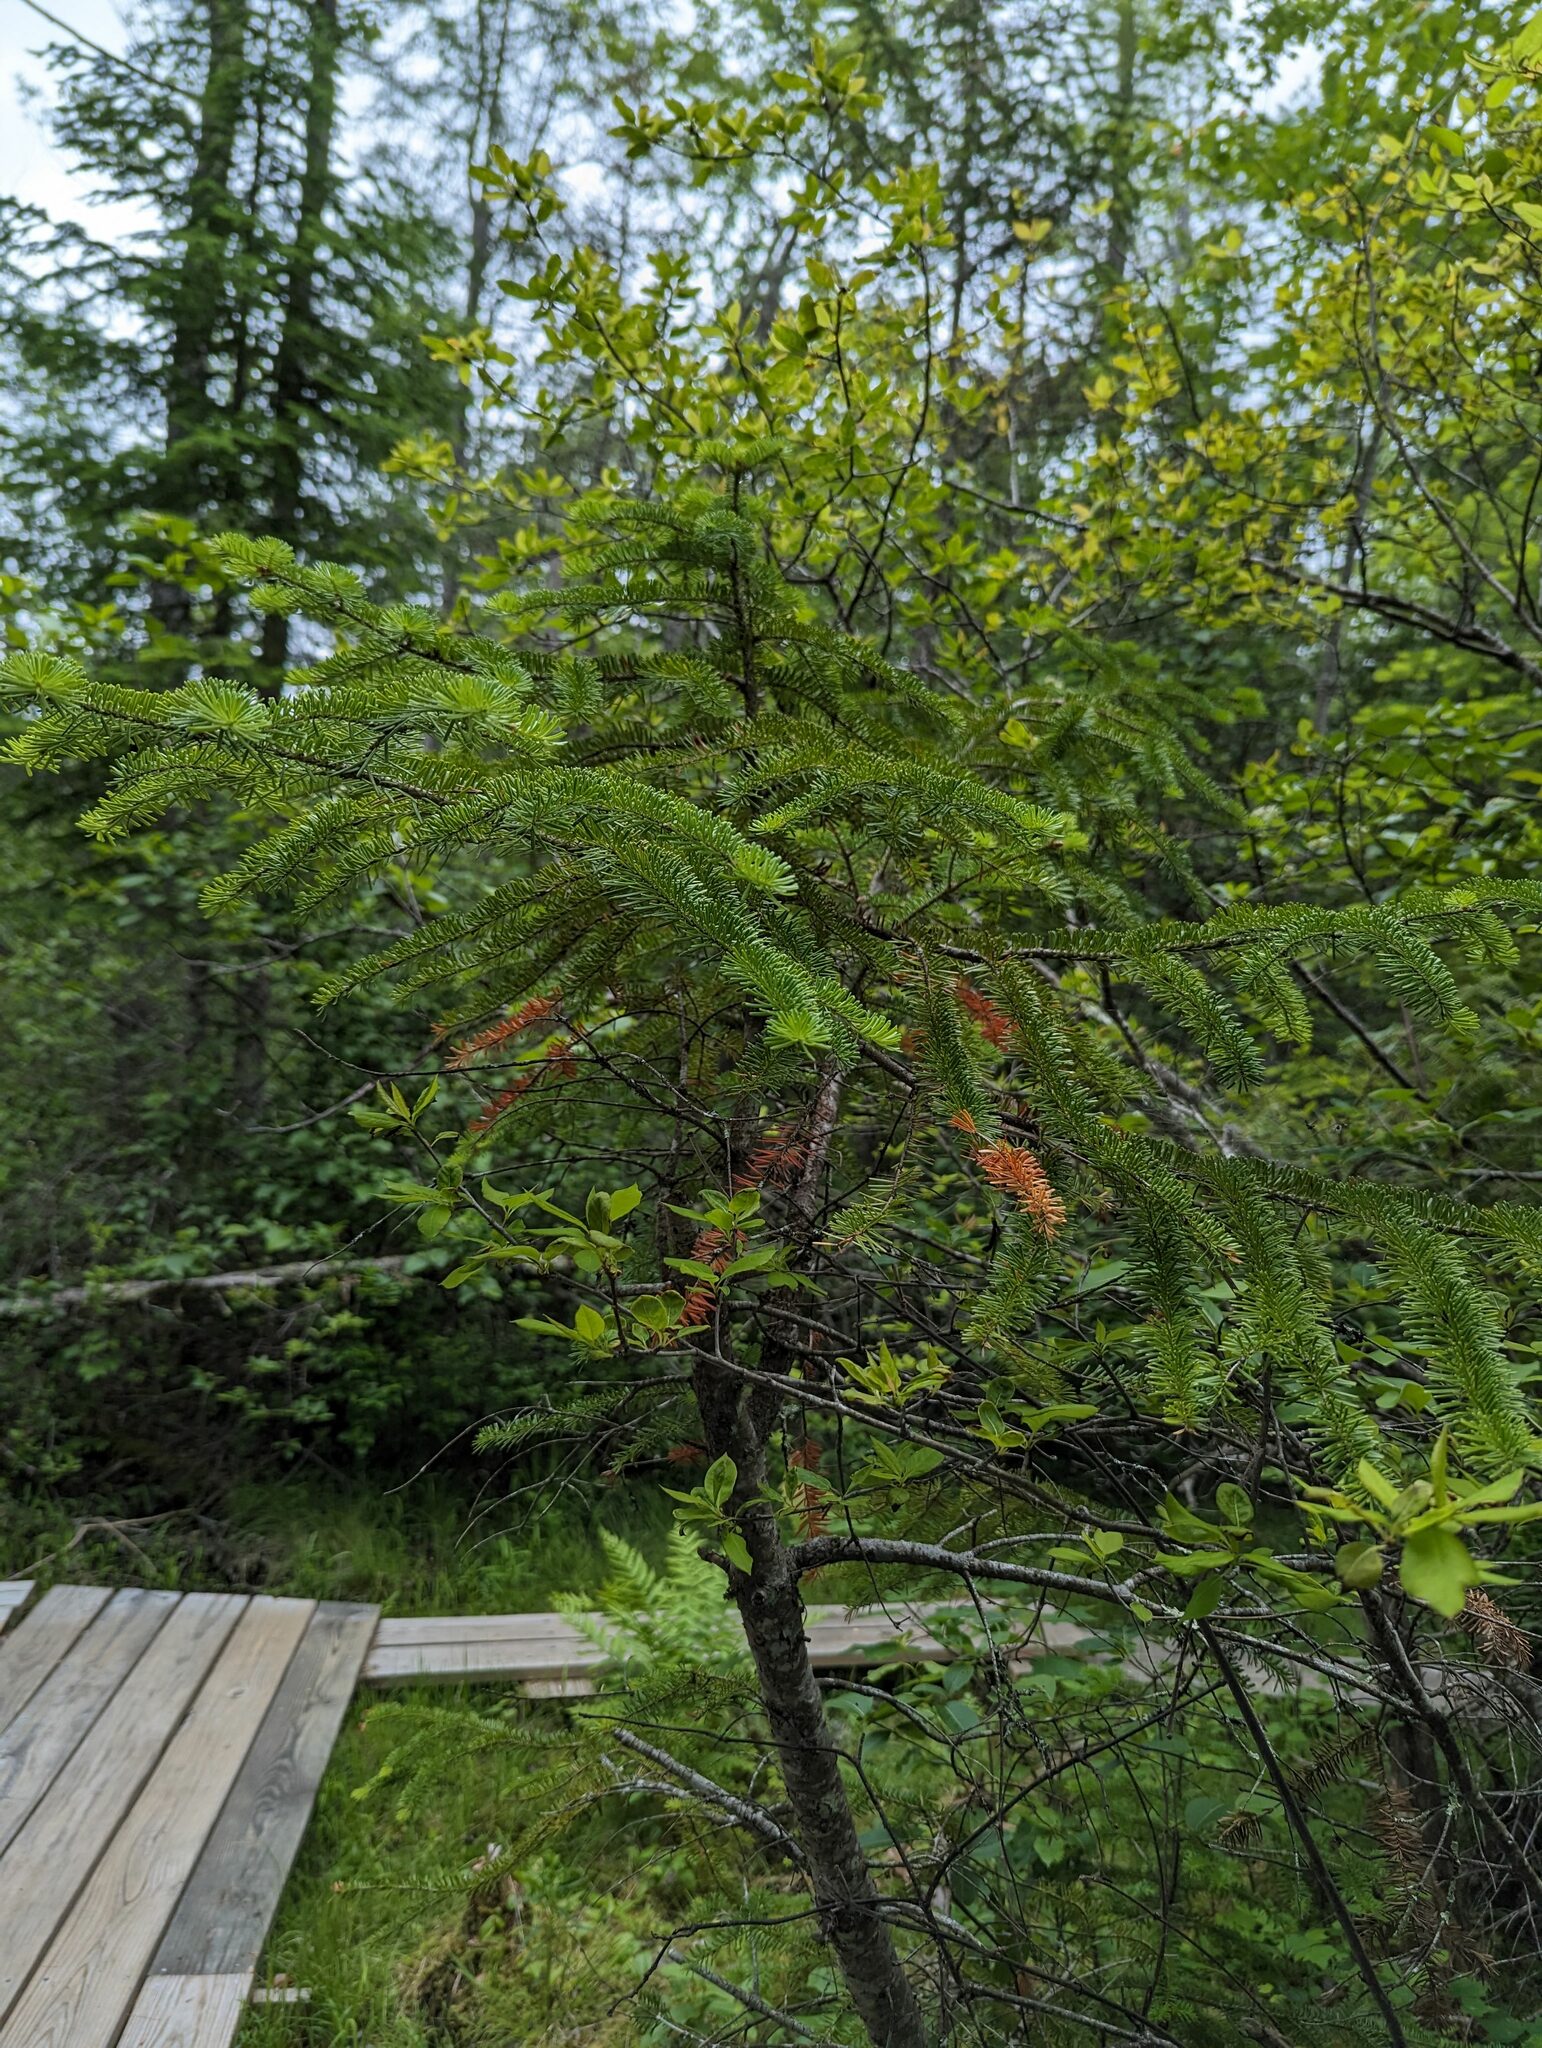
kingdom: Plantae
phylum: Tracheophyta
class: Pinopsida
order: Pinales
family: Pinaceae
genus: Abies
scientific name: Abies balsamea
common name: Balsam fir
